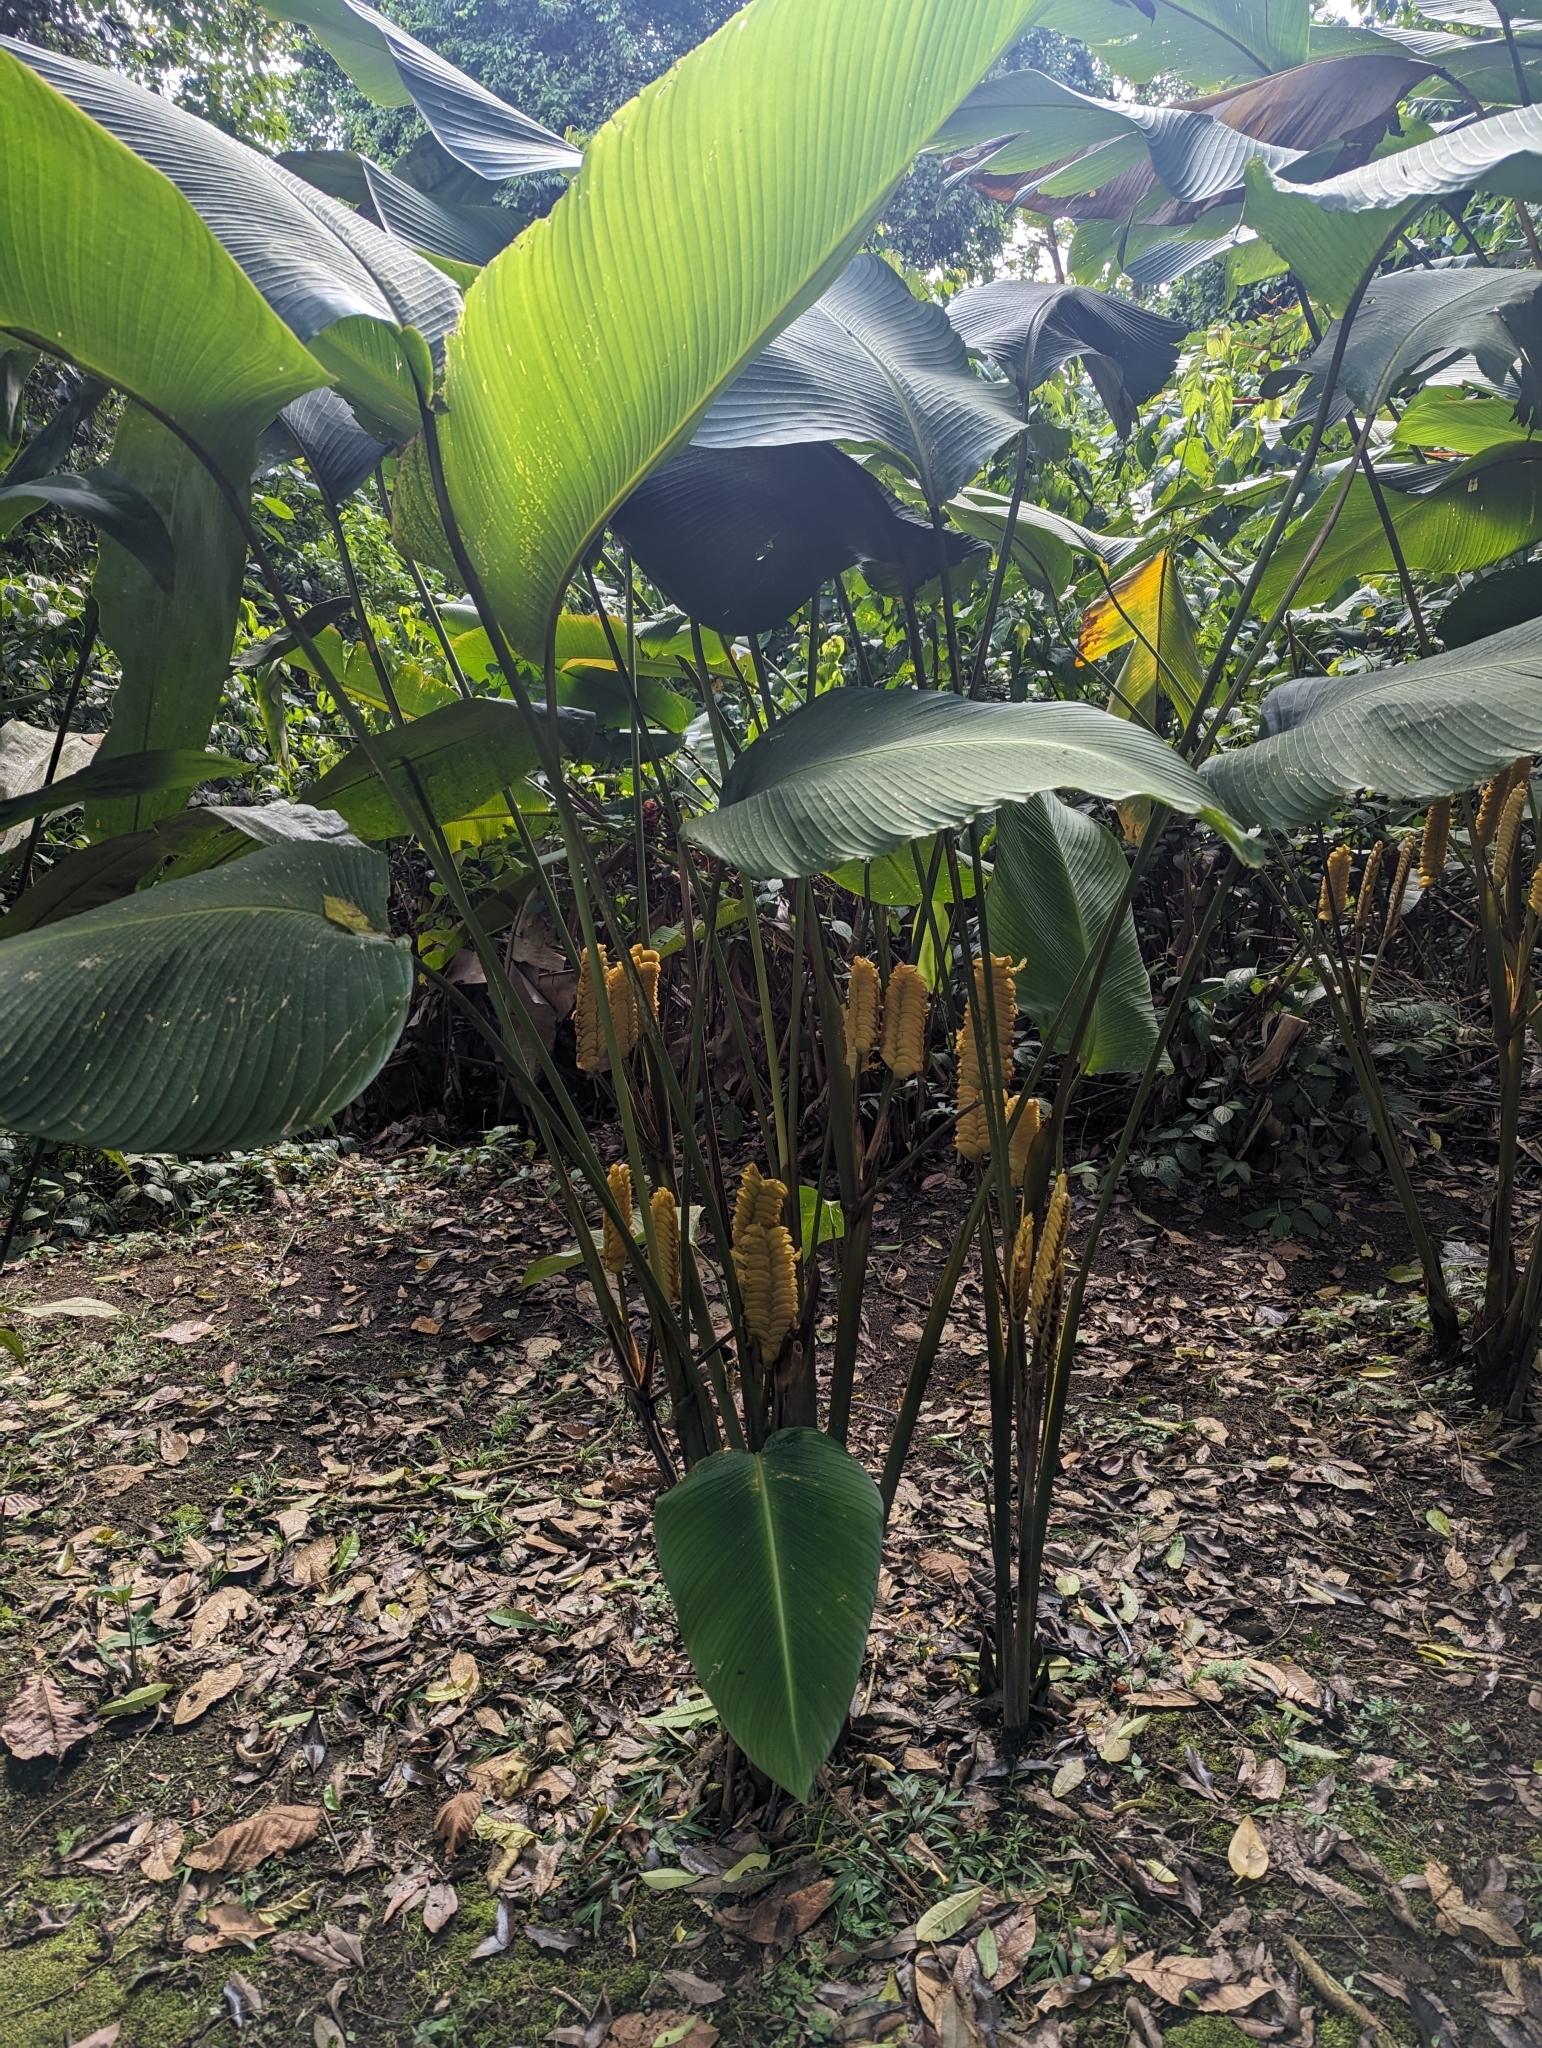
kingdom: Plantae
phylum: Tracheophyta
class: Liliopsida
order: Zingiberales
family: Marantaceae
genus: Calathea
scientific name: Calathea crotalifera
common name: Rattlesnake plant
